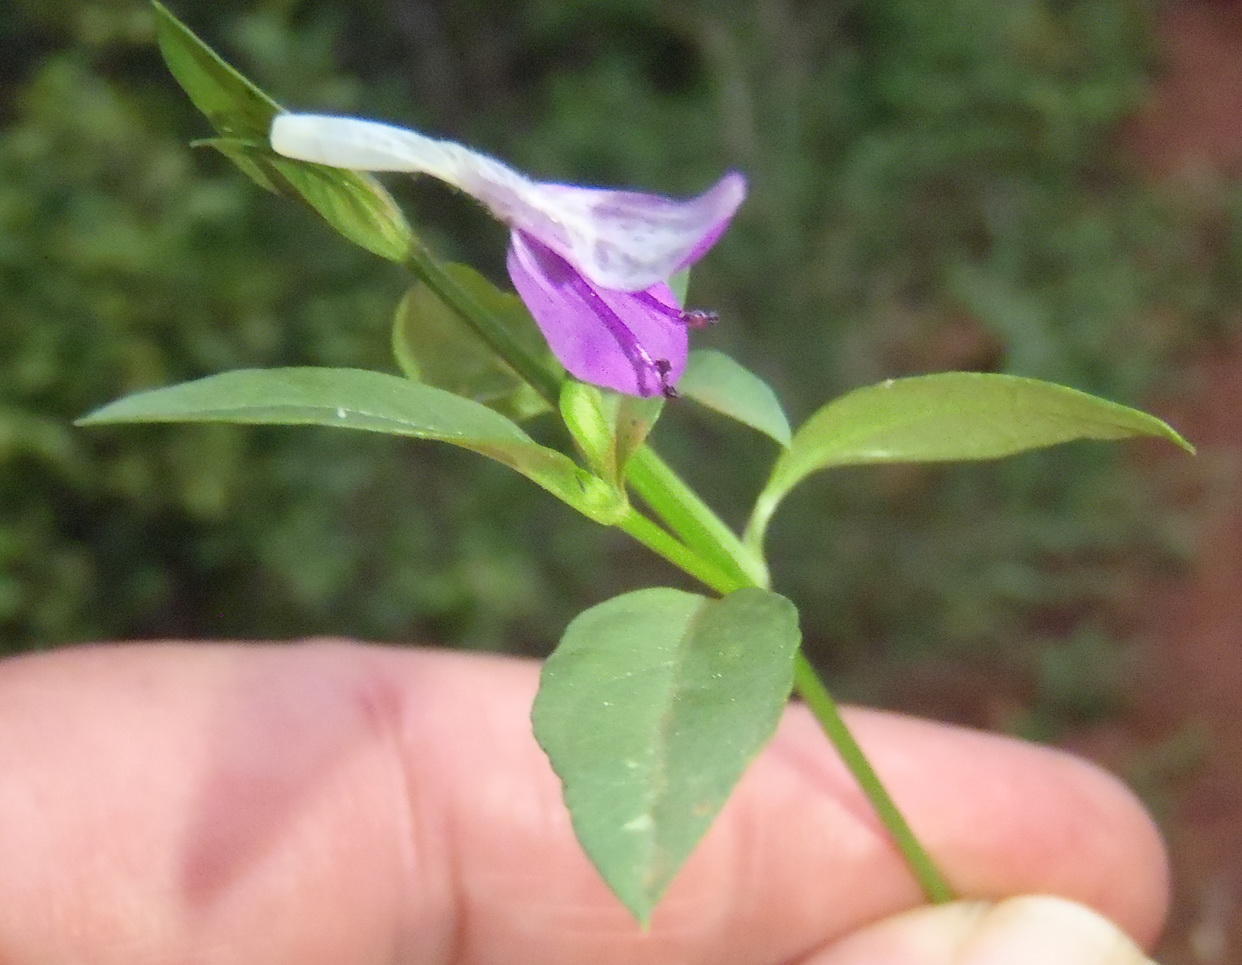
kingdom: Plantae
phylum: Tracheophyta
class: Magnoliopsida
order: Lamiales
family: Acanthaceae
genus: Dicliptera
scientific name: Dicliptera eenii
